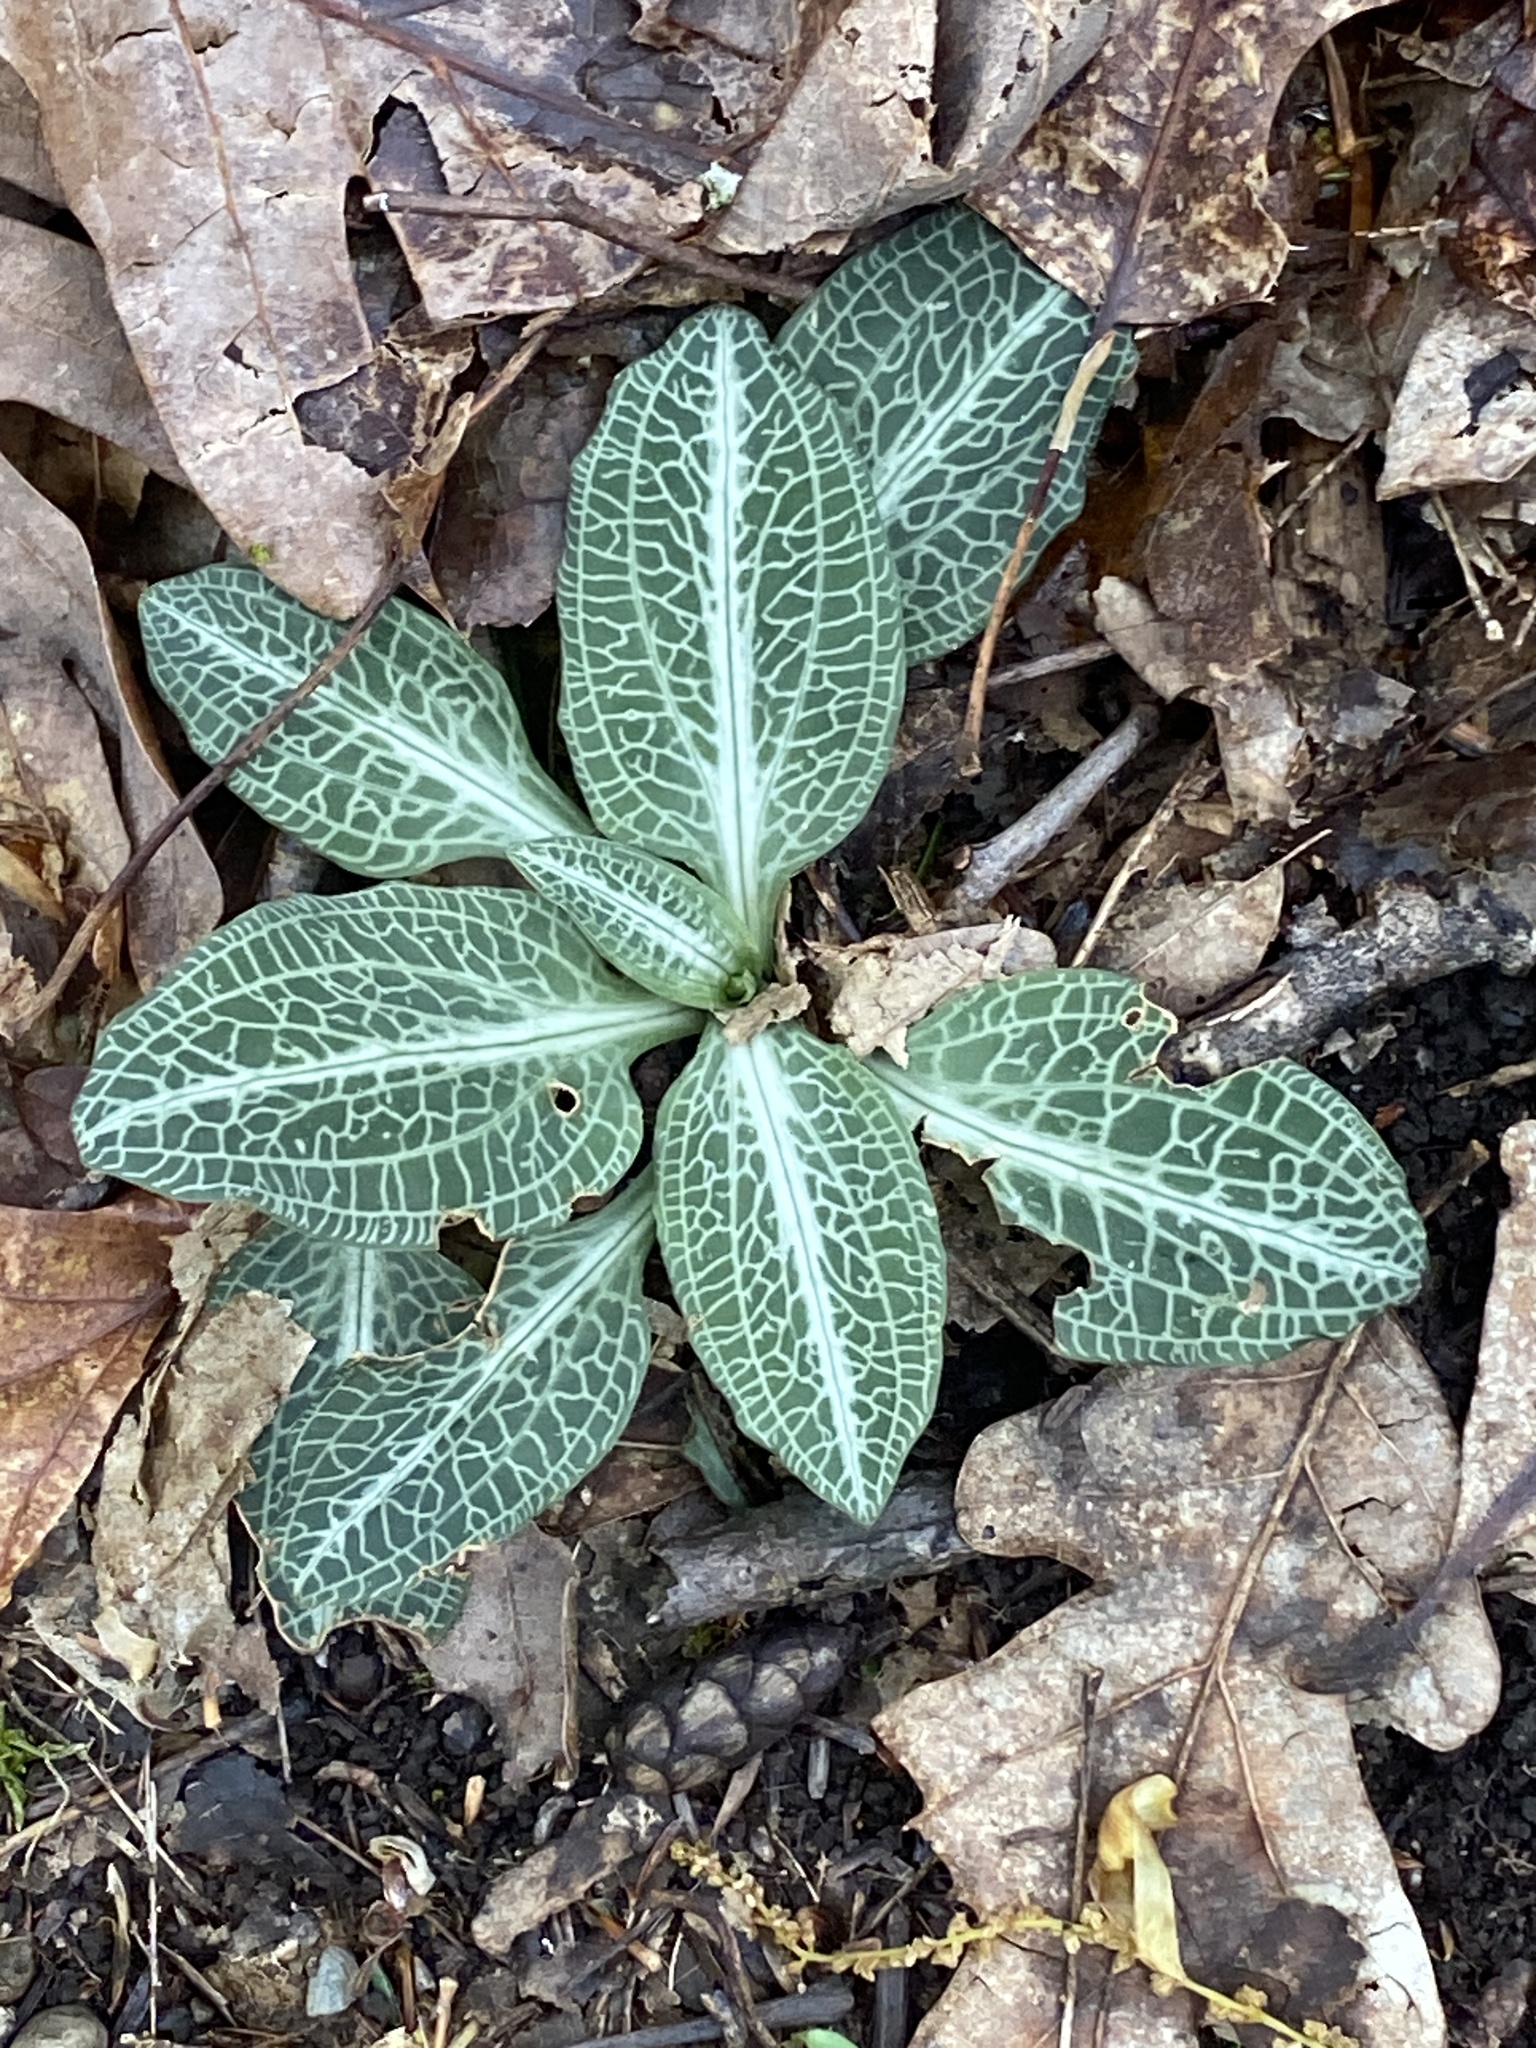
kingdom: Plantae
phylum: Tracheophyta
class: Liliopsida
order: Asparagales
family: Orchidaceae
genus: Goodyera
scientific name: Goodyera pubescens
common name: Downy rattlesnake-plantain
